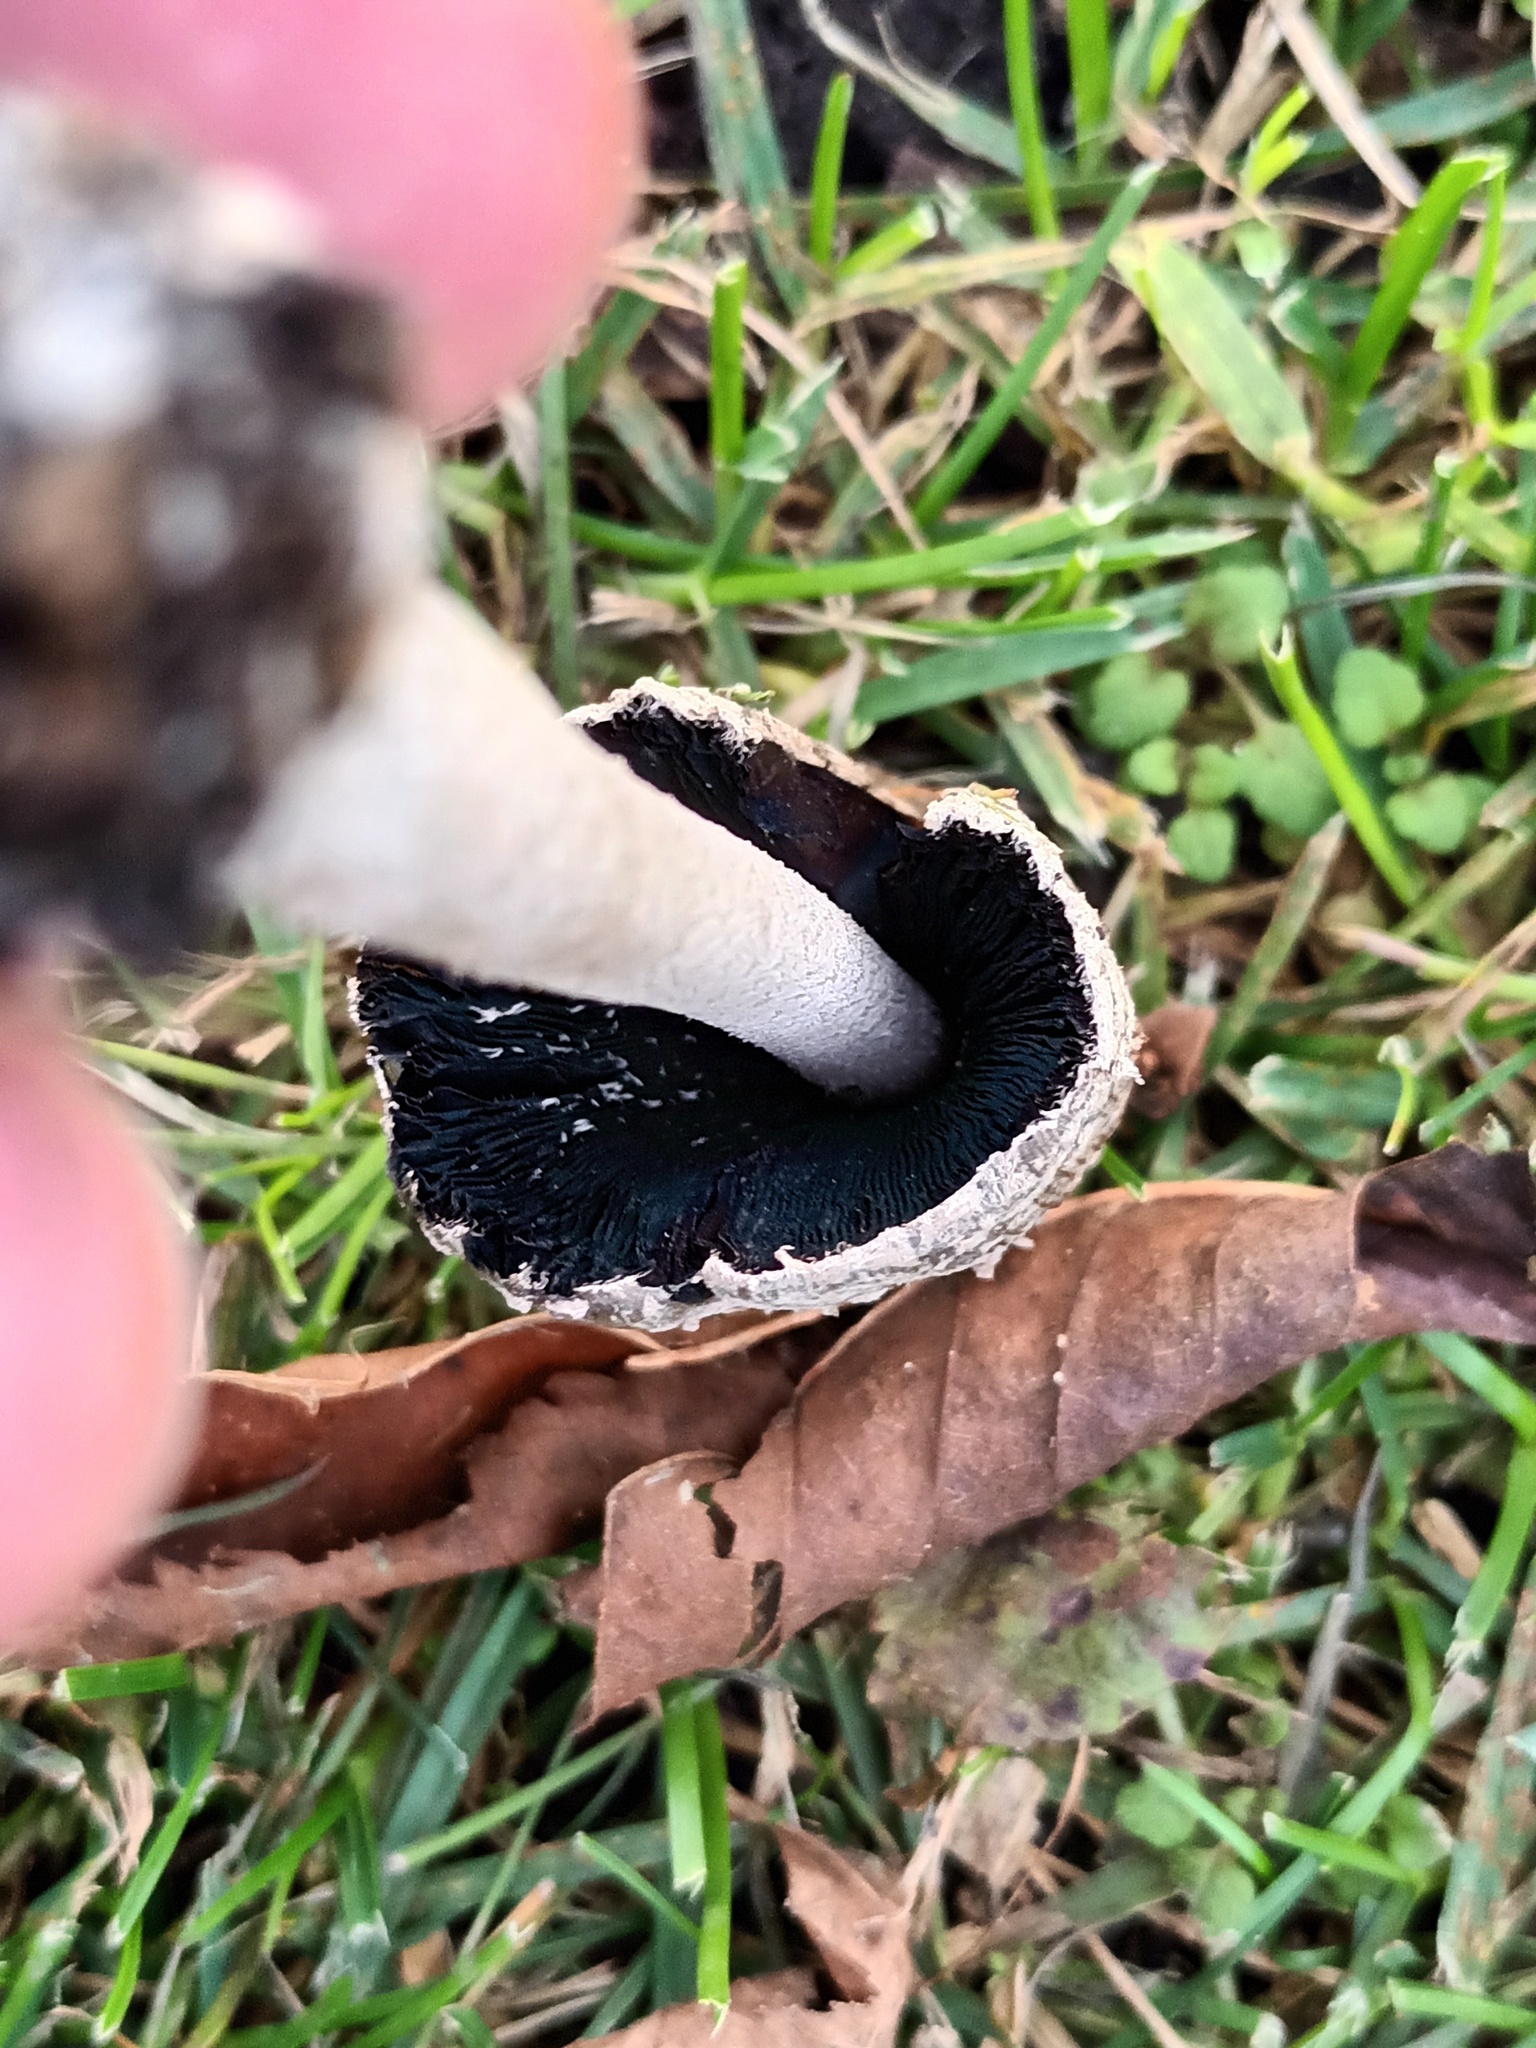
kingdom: Fungi
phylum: Basidiomycota
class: Agaricomycetes
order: Agaricales
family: Psathyrellaceae
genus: Coprinopsis
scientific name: Coprinopsis picacea
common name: Magpie inkcap
